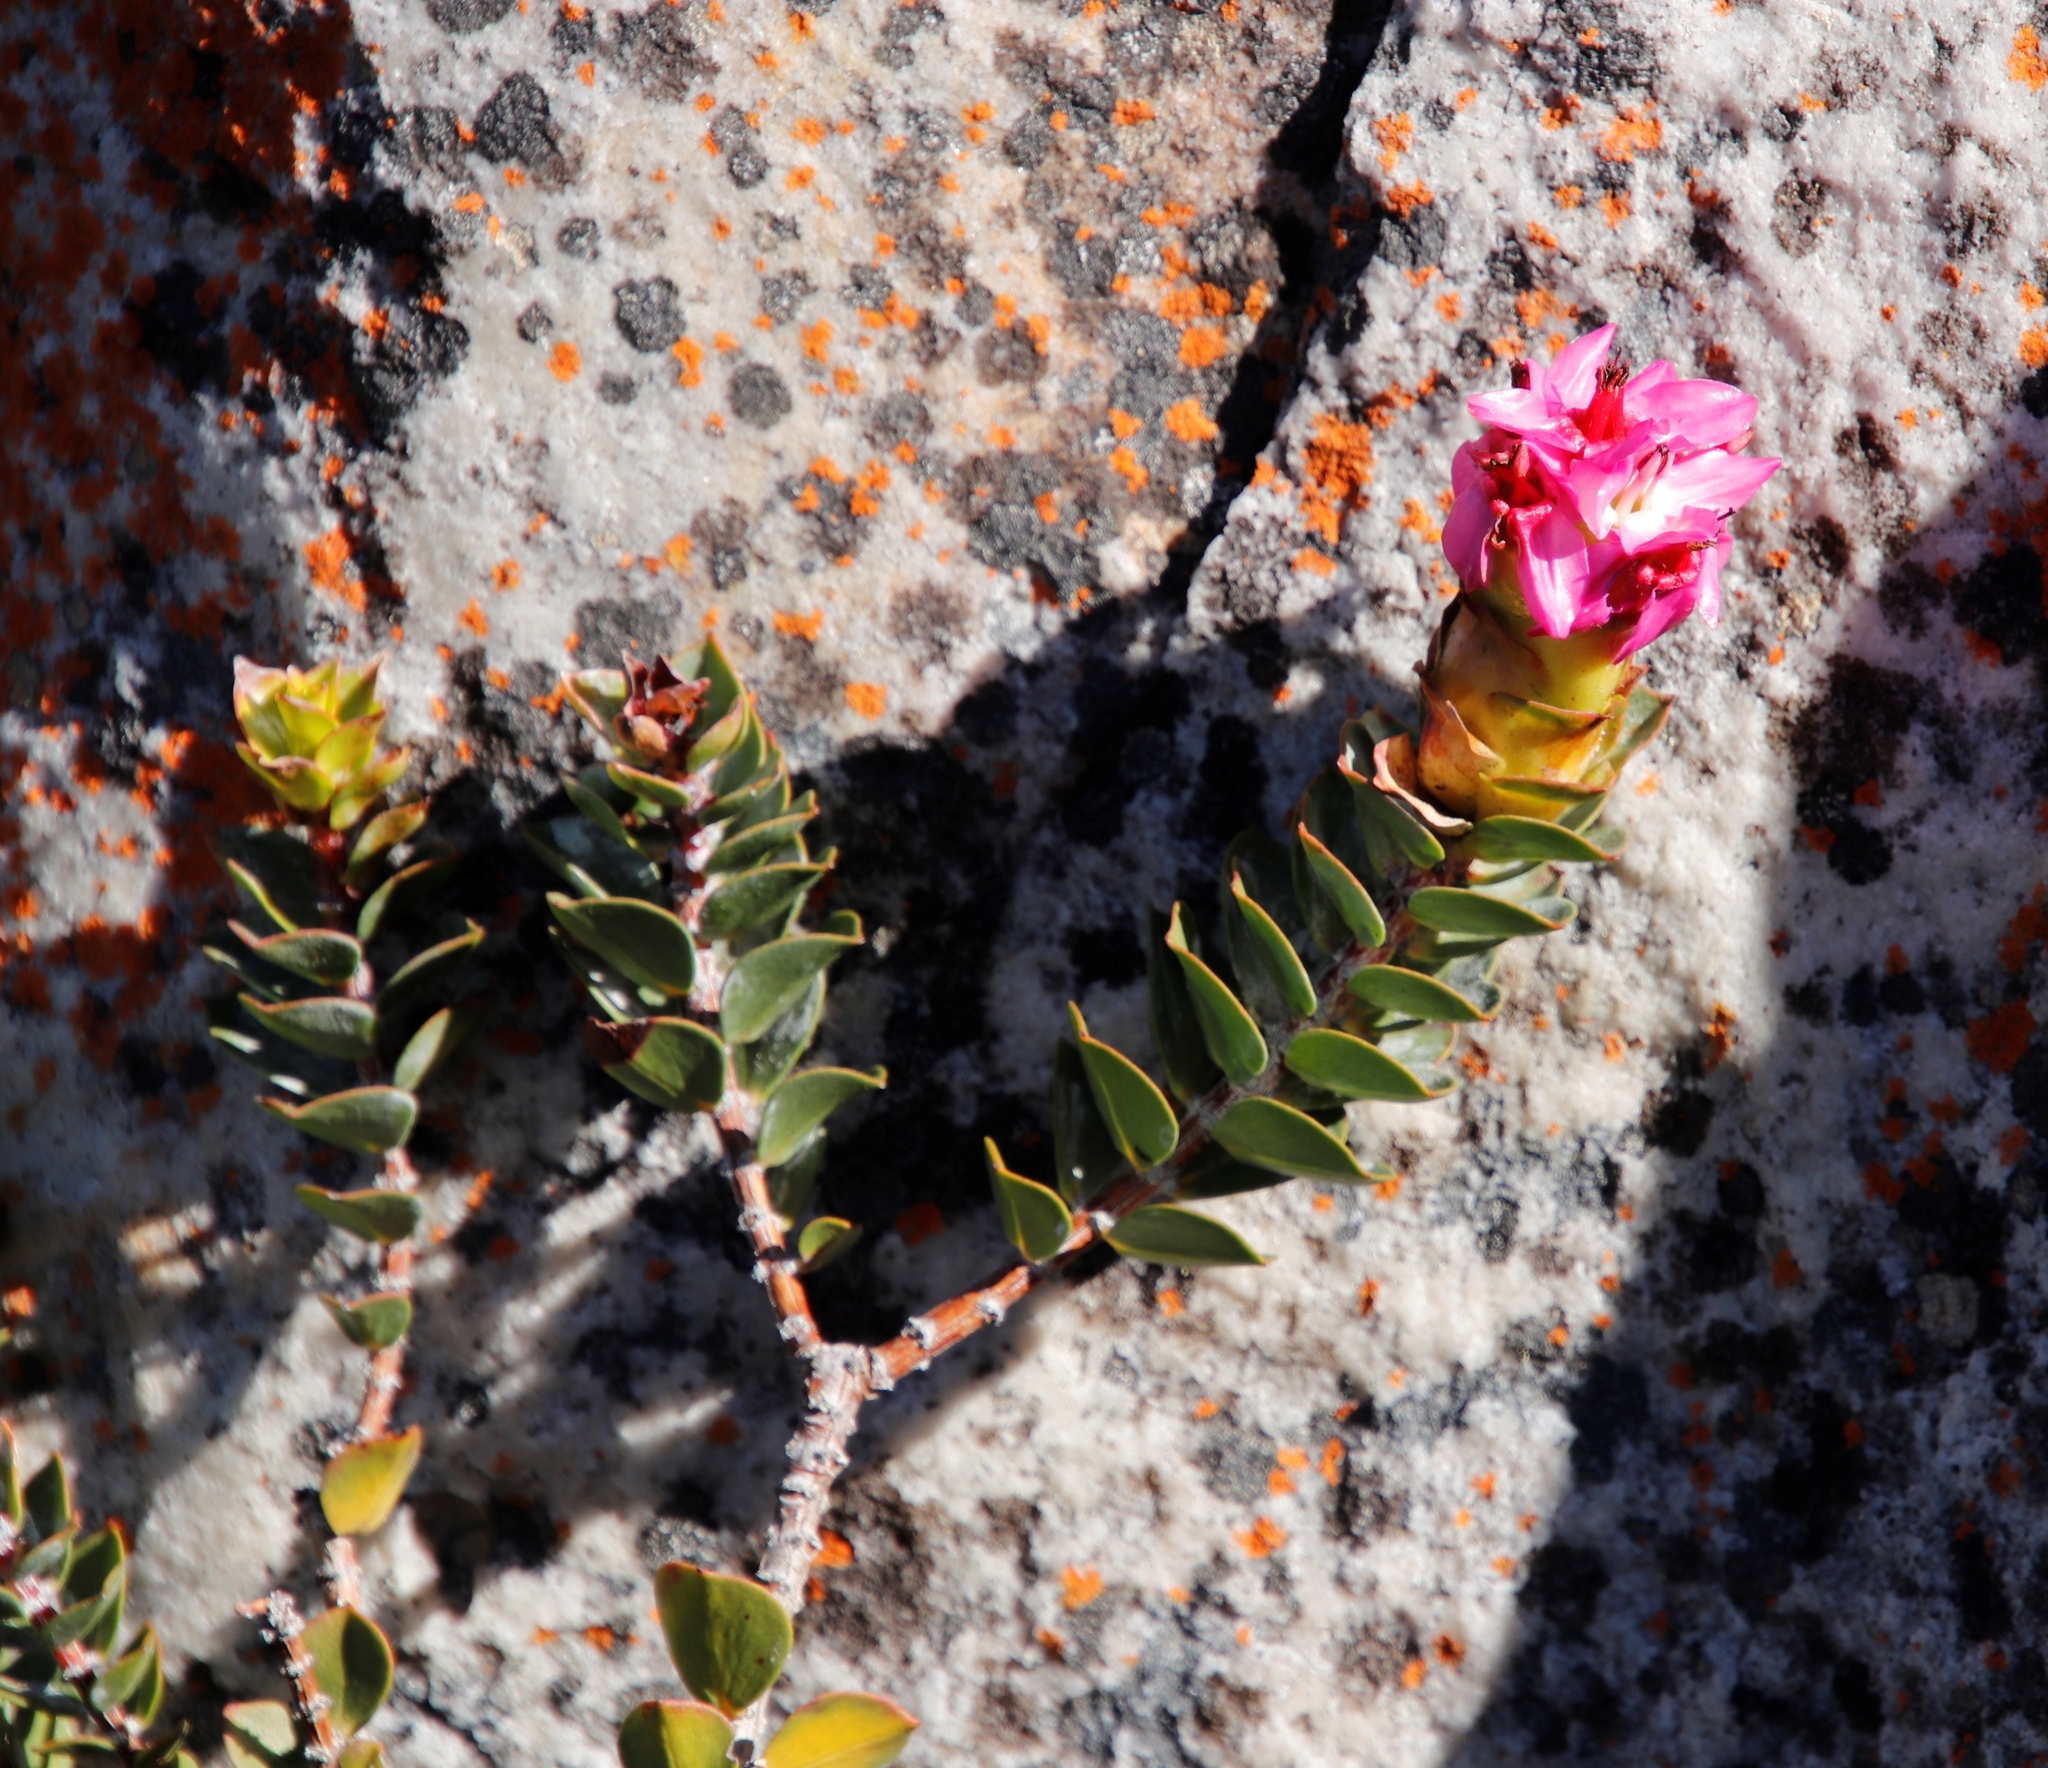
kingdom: Plantae
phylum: Tracheophyta
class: Magnoliopsida
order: Myrtales
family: Penaeaceae
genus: Saltera
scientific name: Saltera sarcocolla
